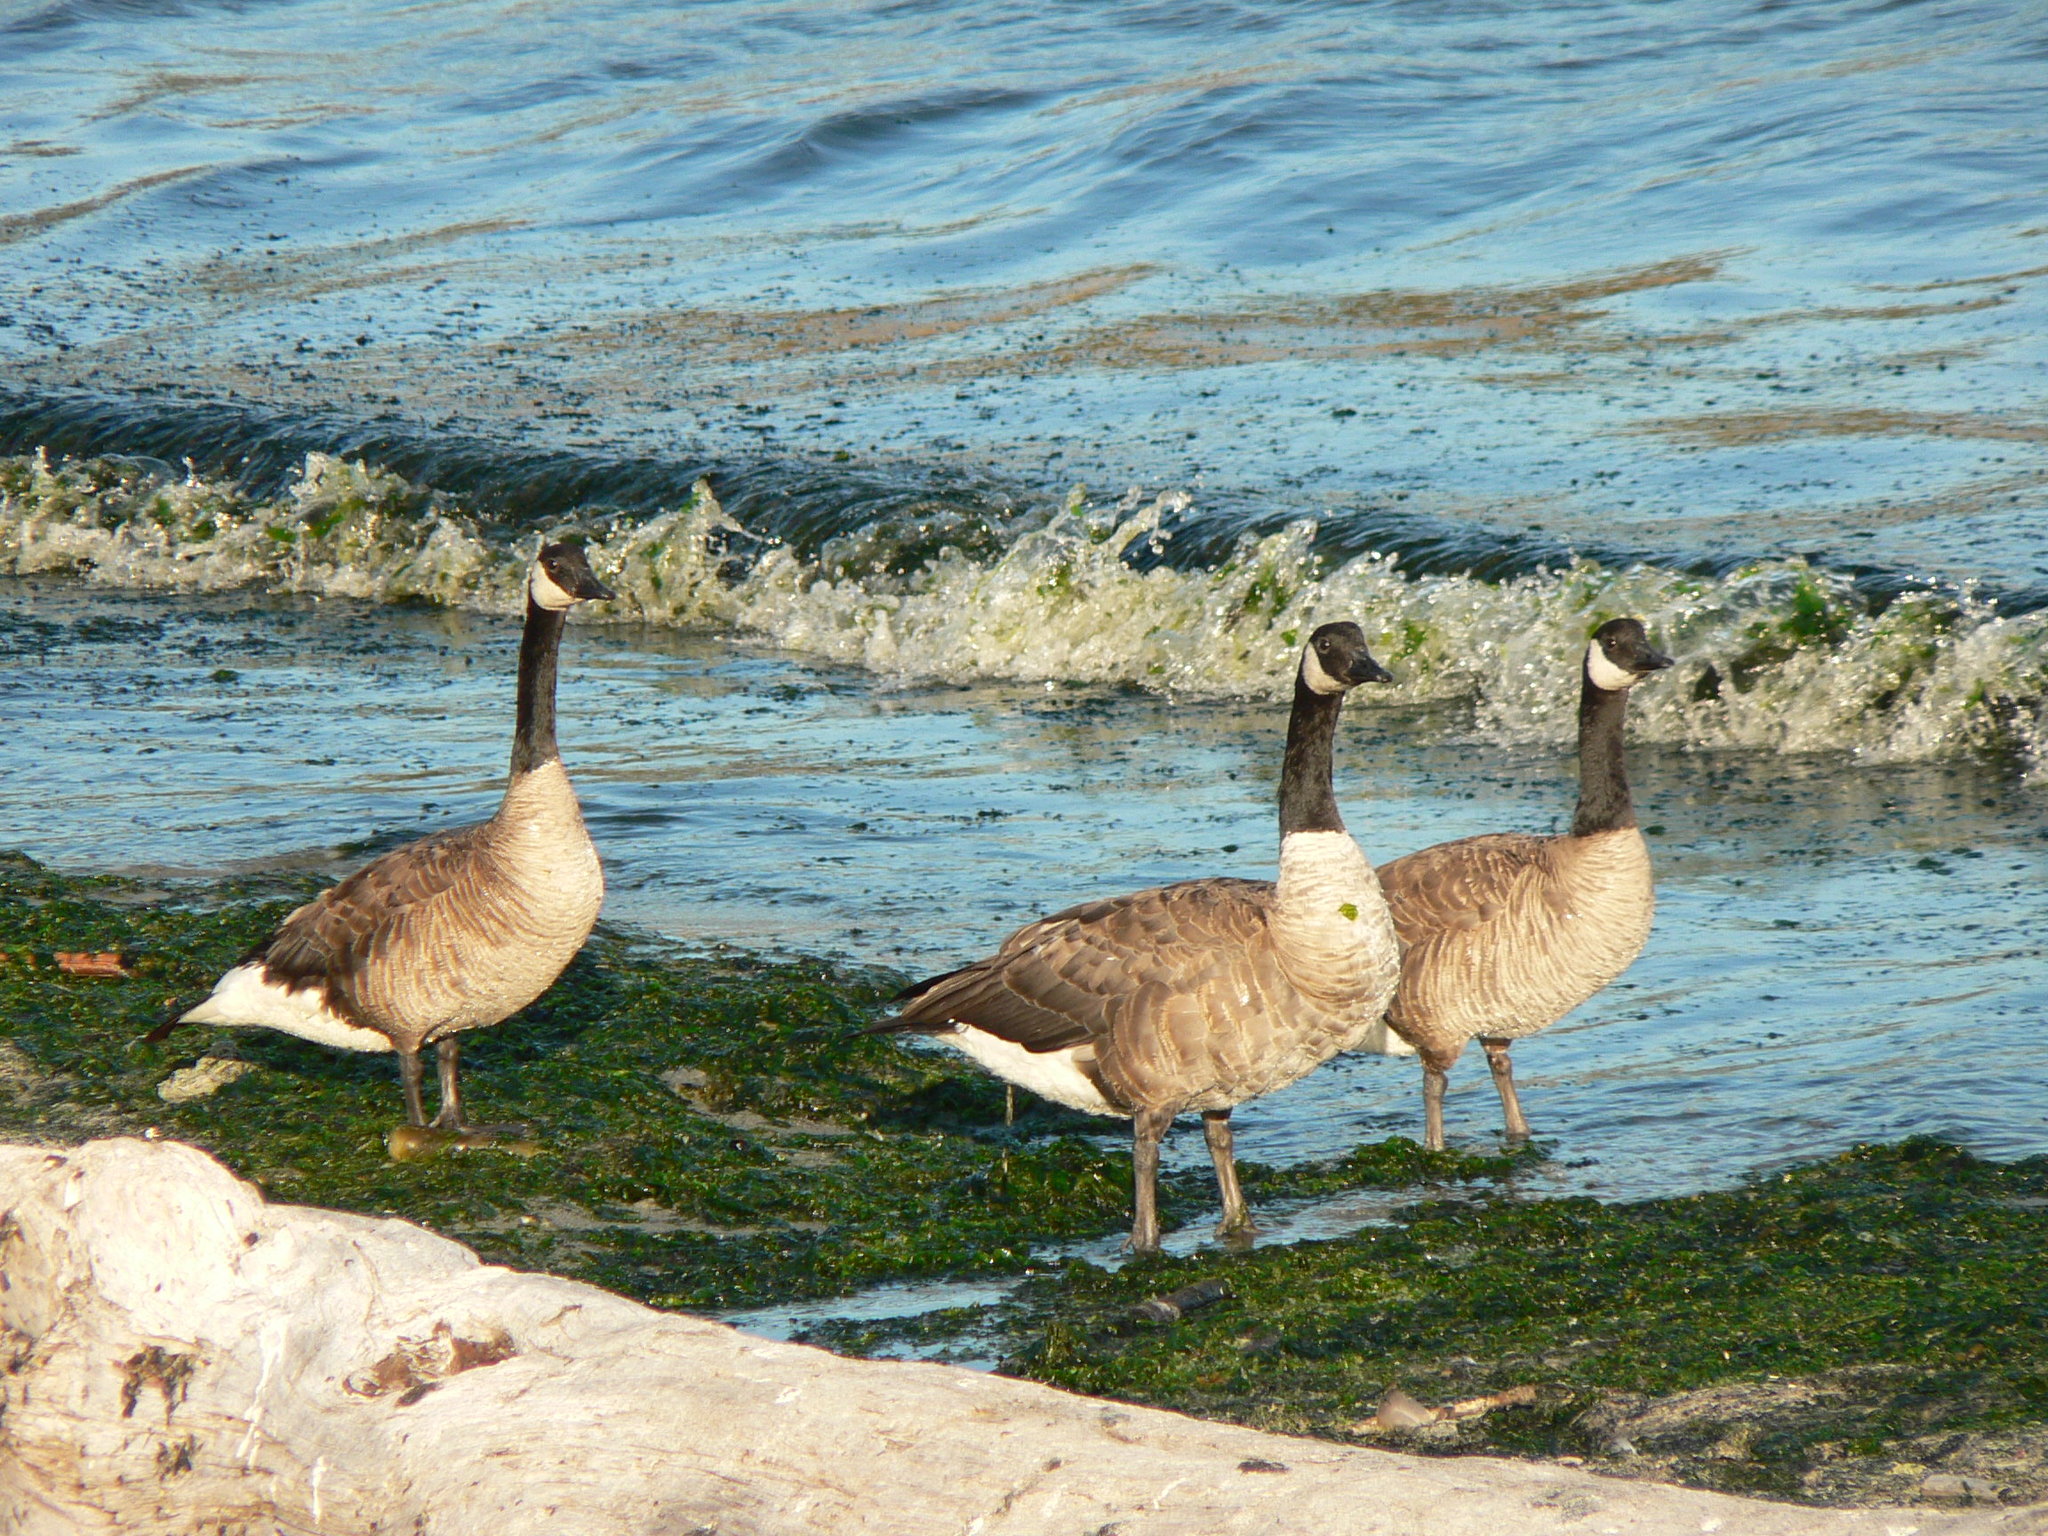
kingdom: Animalia
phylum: Chordata
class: Aves
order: Anseriformes
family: Anatidae
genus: Branta
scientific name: Branta canadensis
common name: Canada goose
